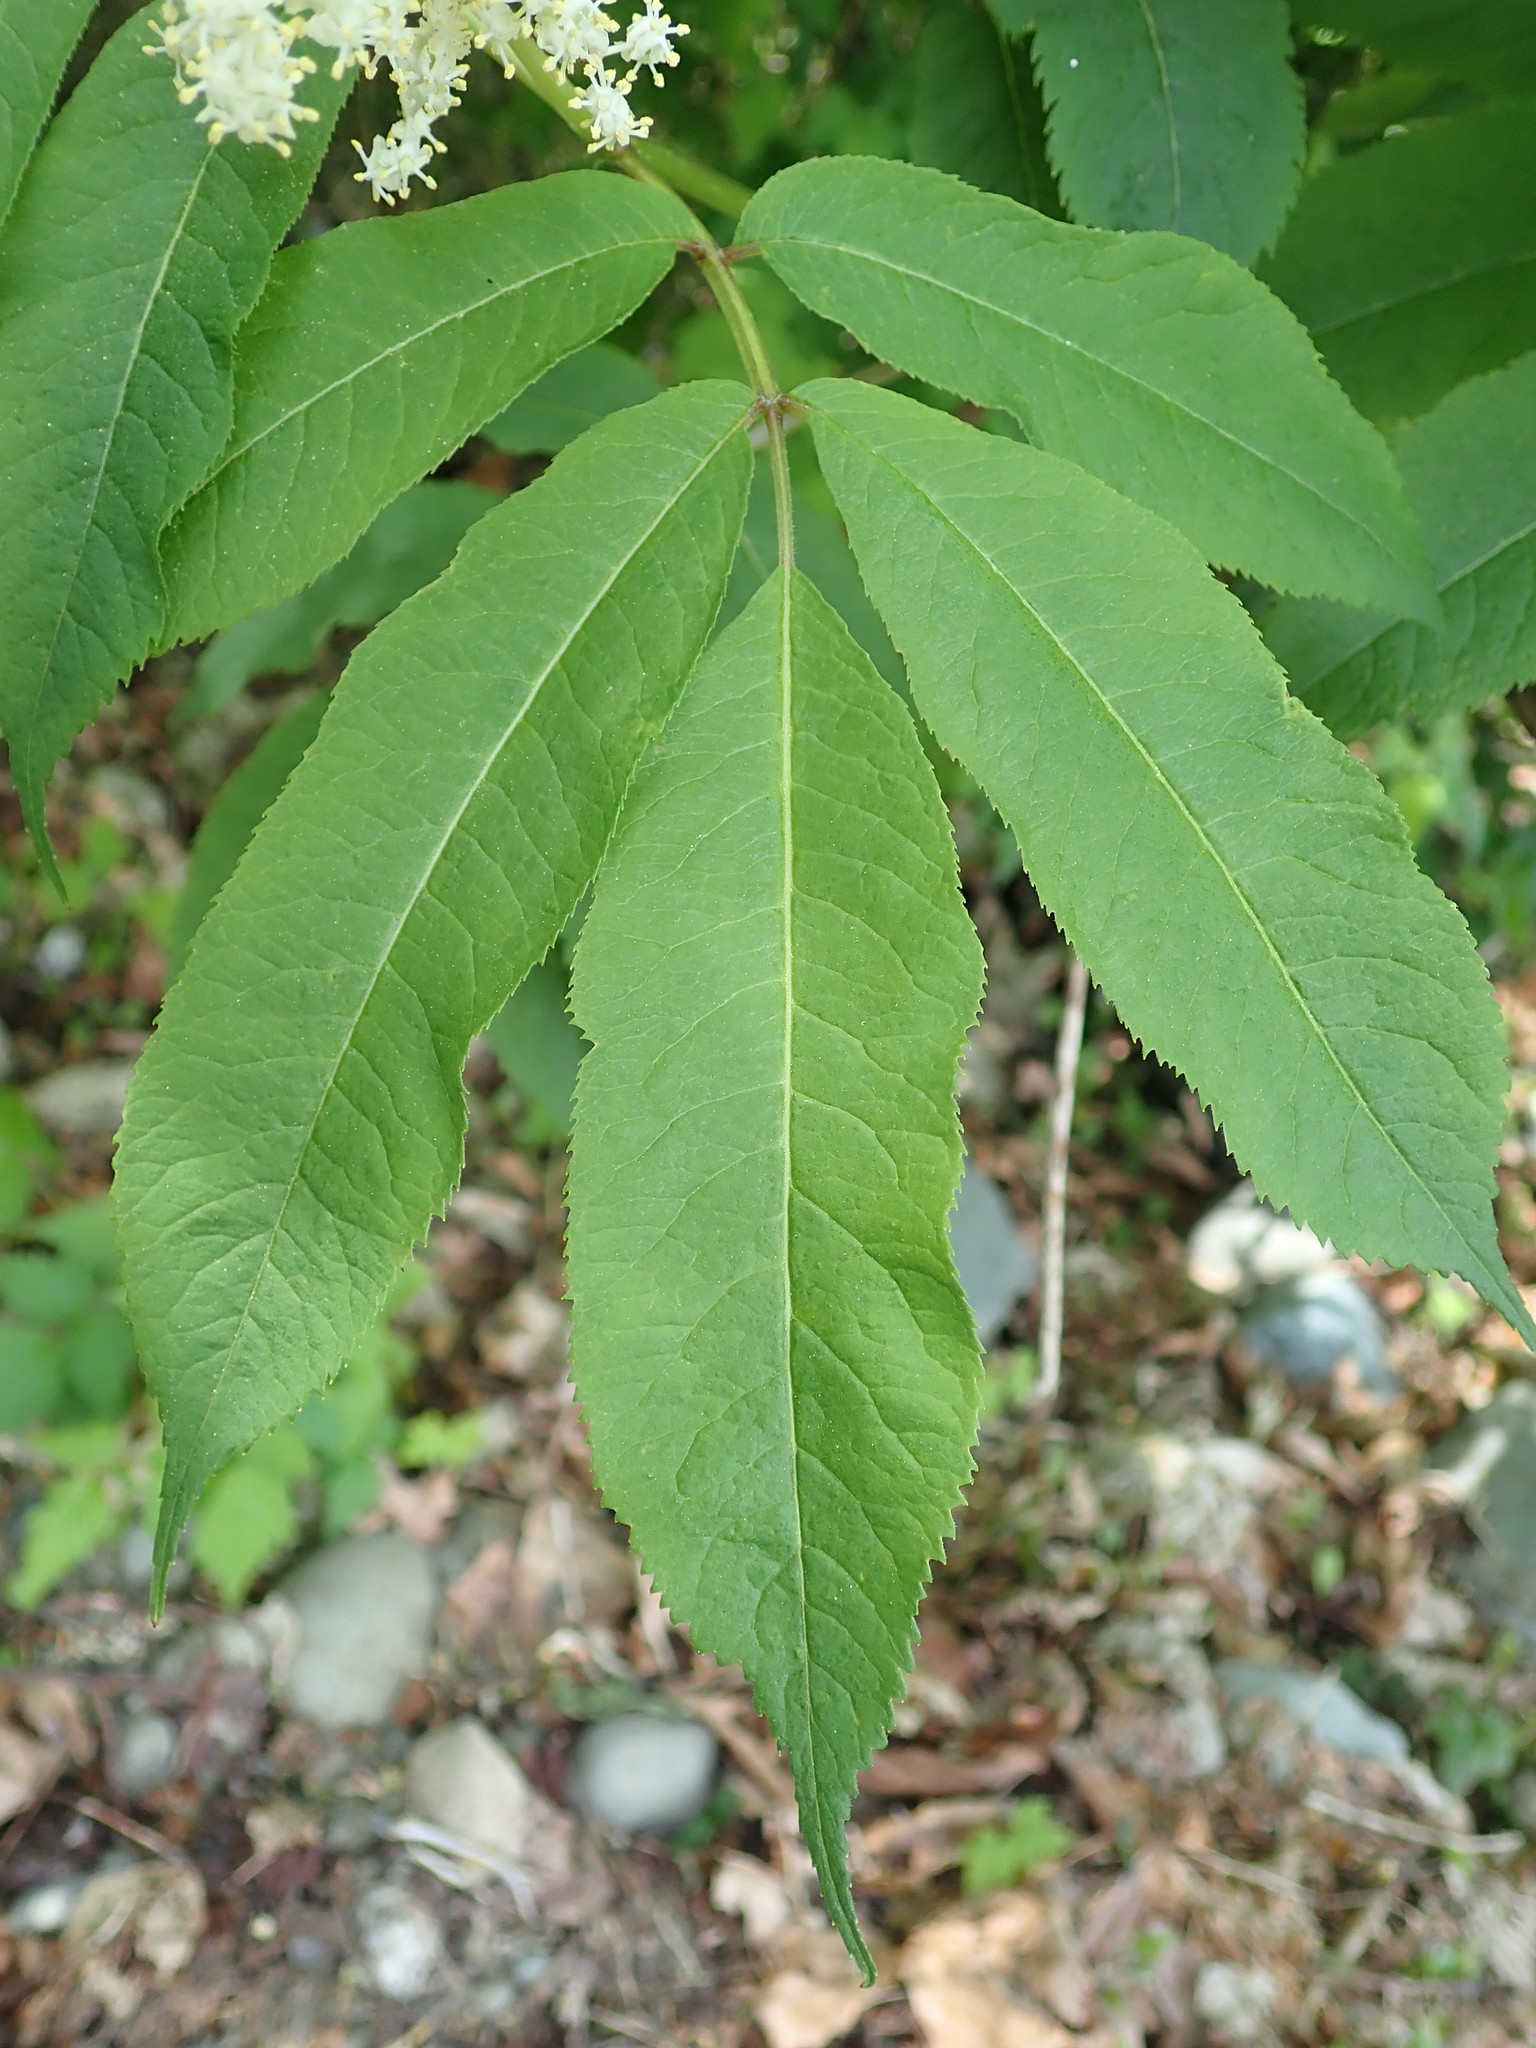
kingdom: Plantae
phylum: Tracheophyta
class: Magnoliopsida
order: Dipsacales
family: Viburnaceae
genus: Sambucus
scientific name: Sambucus racemosa
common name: Red-berried elder
